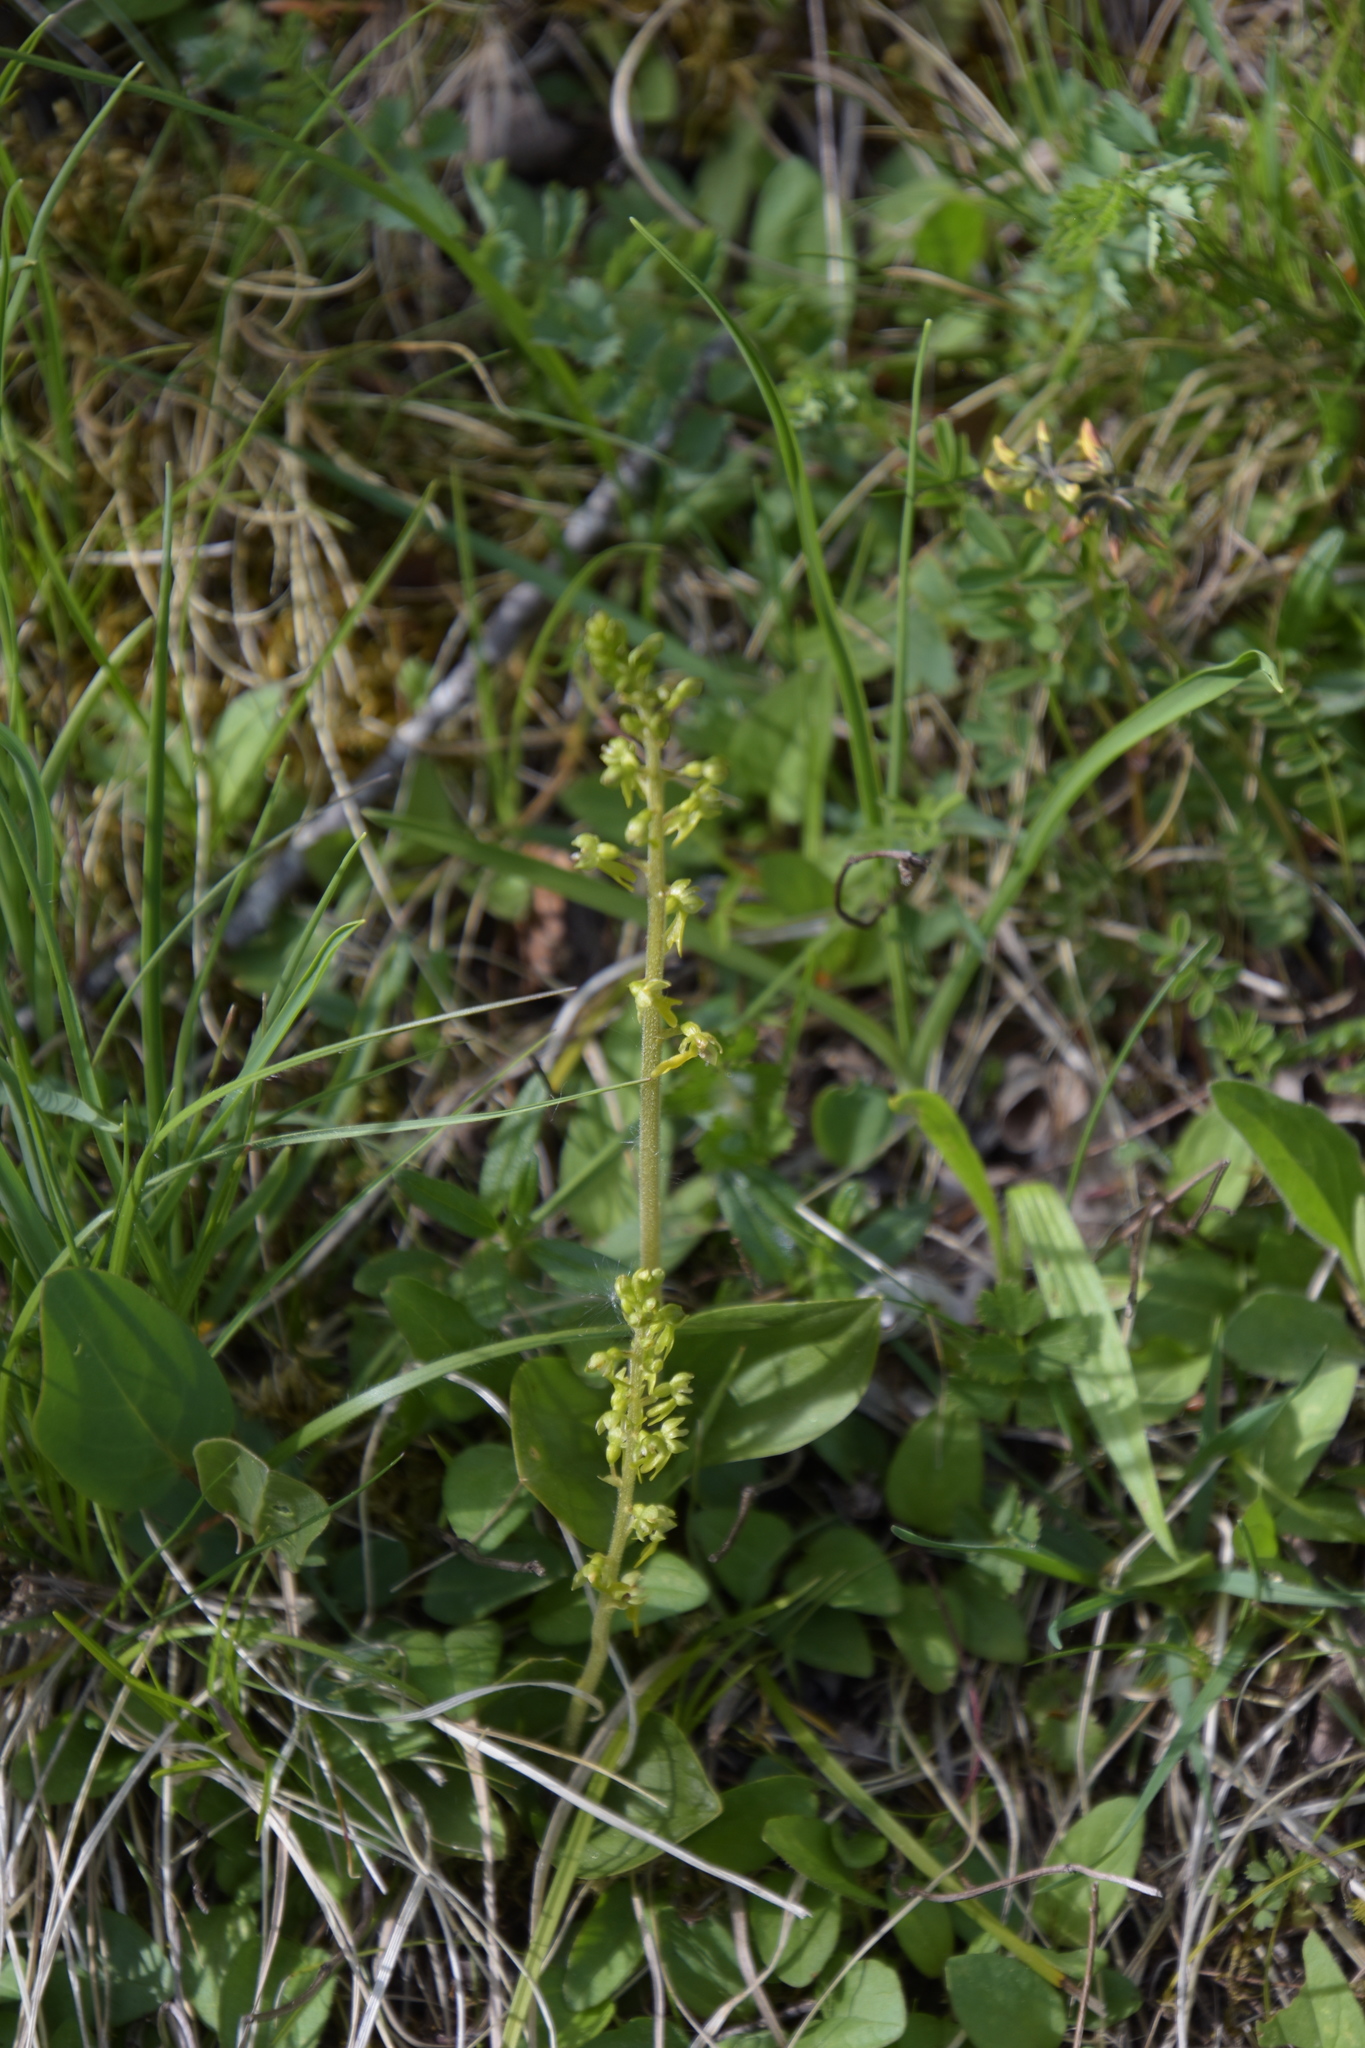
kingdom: Plantae
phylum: Tracheophyta
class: Liliopsida
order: Asparagales
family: Orchidaceae
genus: Neottia
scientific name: Neottia ovata
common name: Common twayblade
